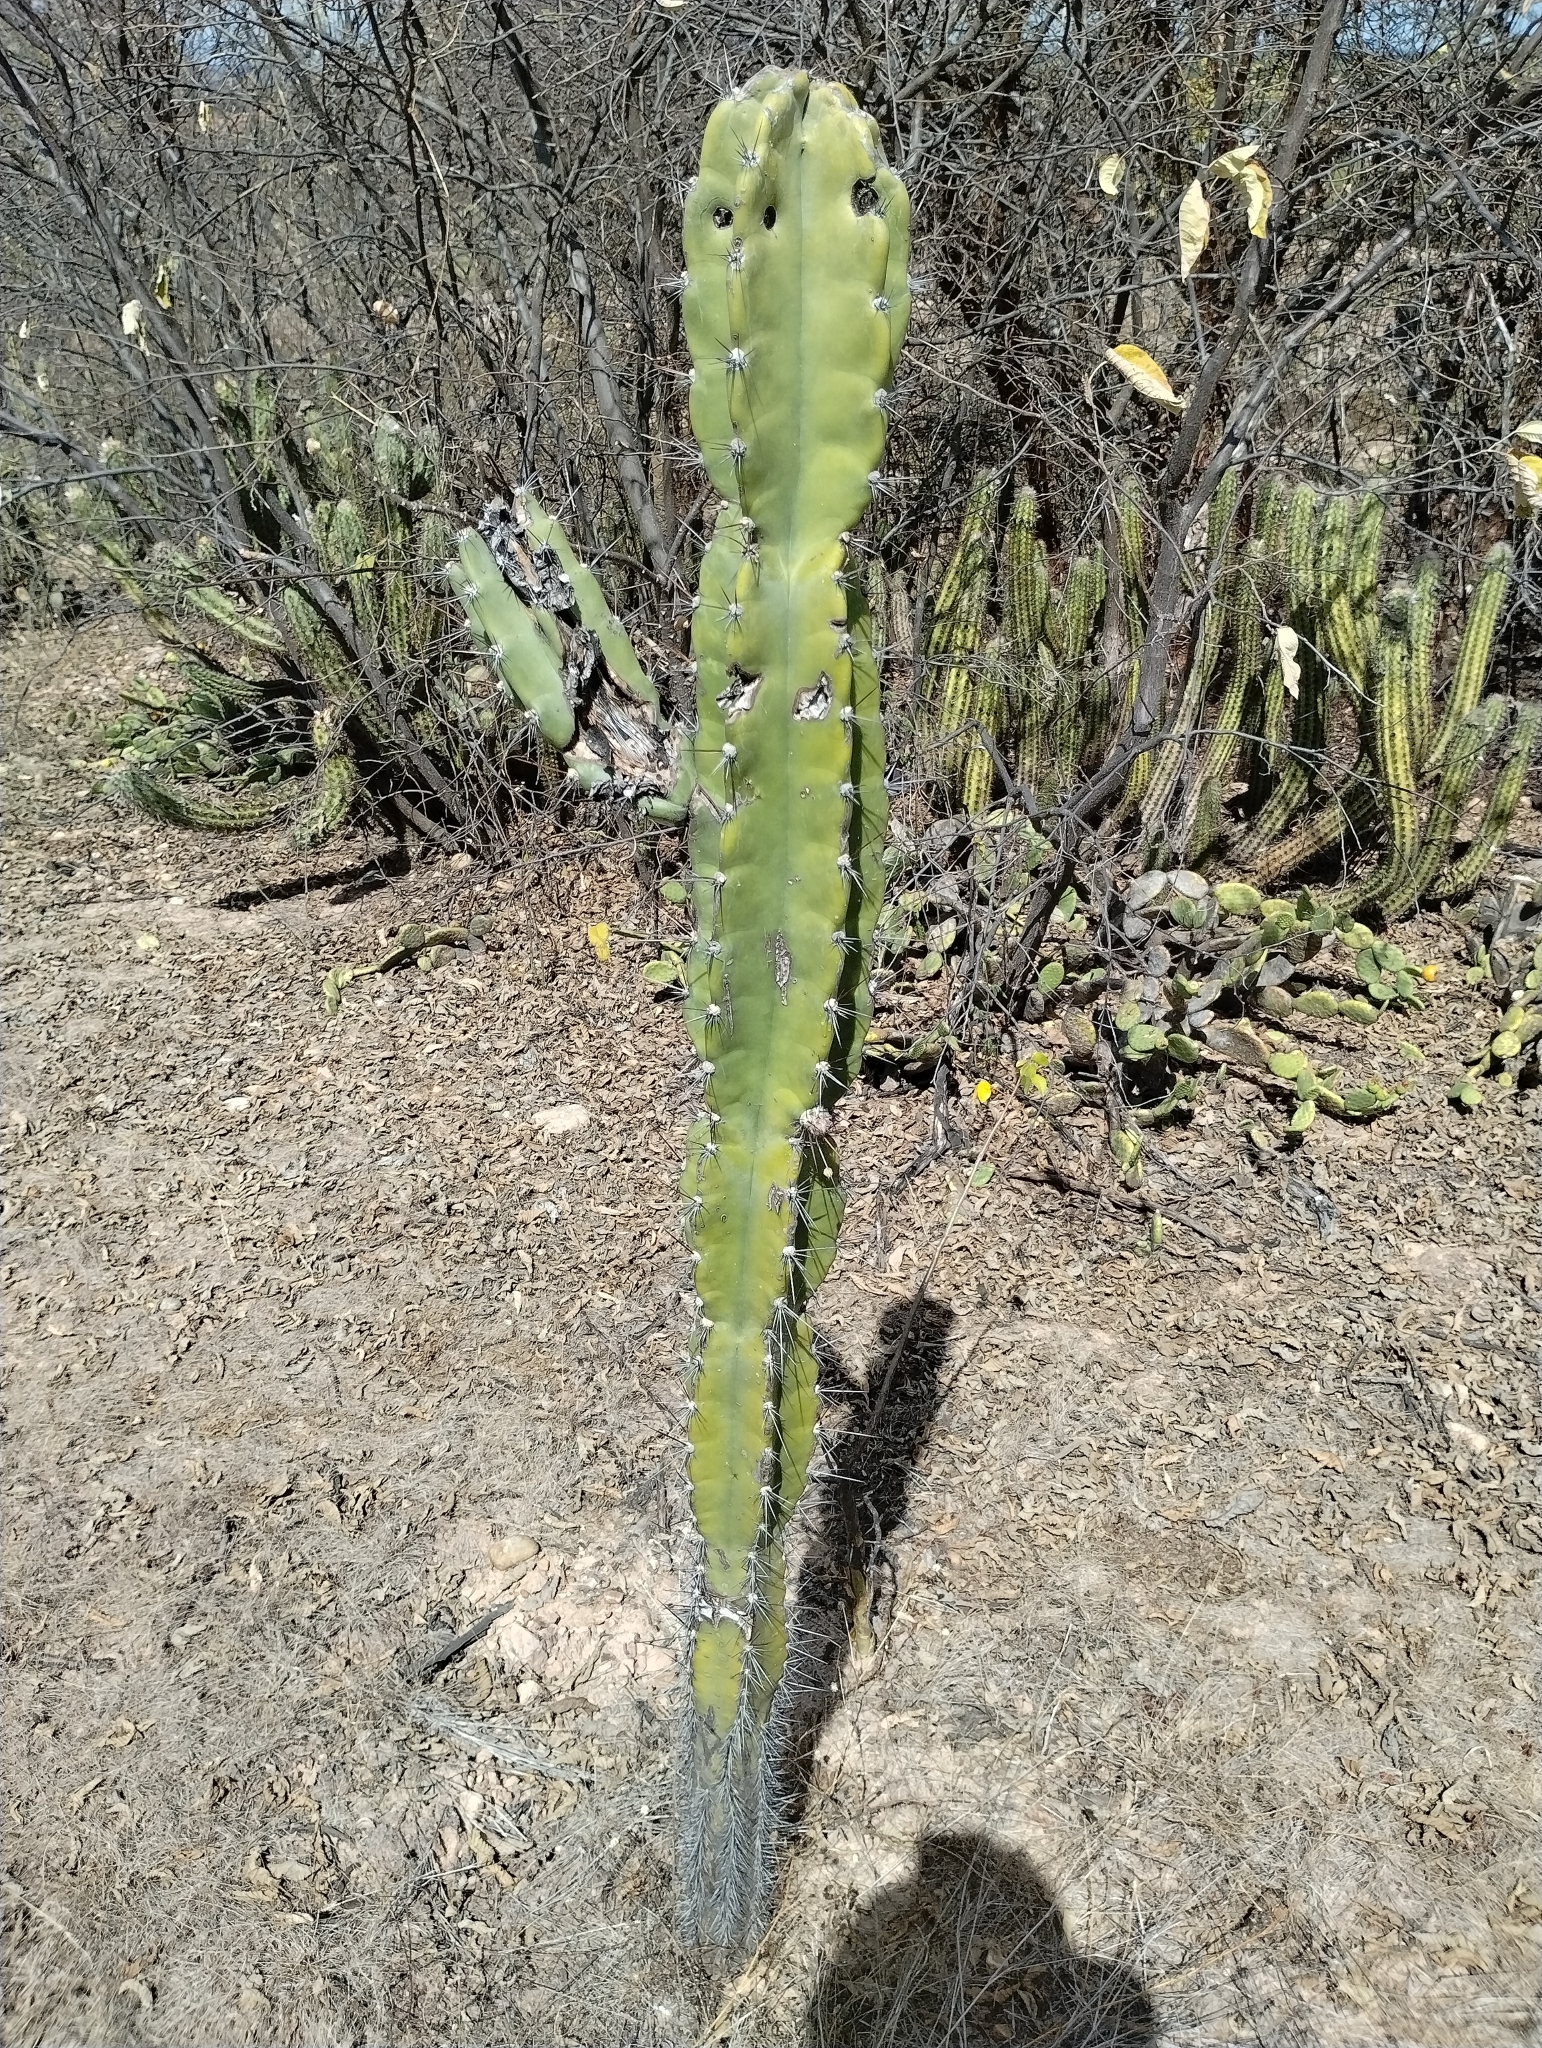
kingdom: Plantae
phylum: Tracheophyta
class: Magnoliopsida
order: Caryophyllales
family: Cactaceae
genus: Cereus
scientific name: Cereus jamacaru
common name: Queen-of-the-night
